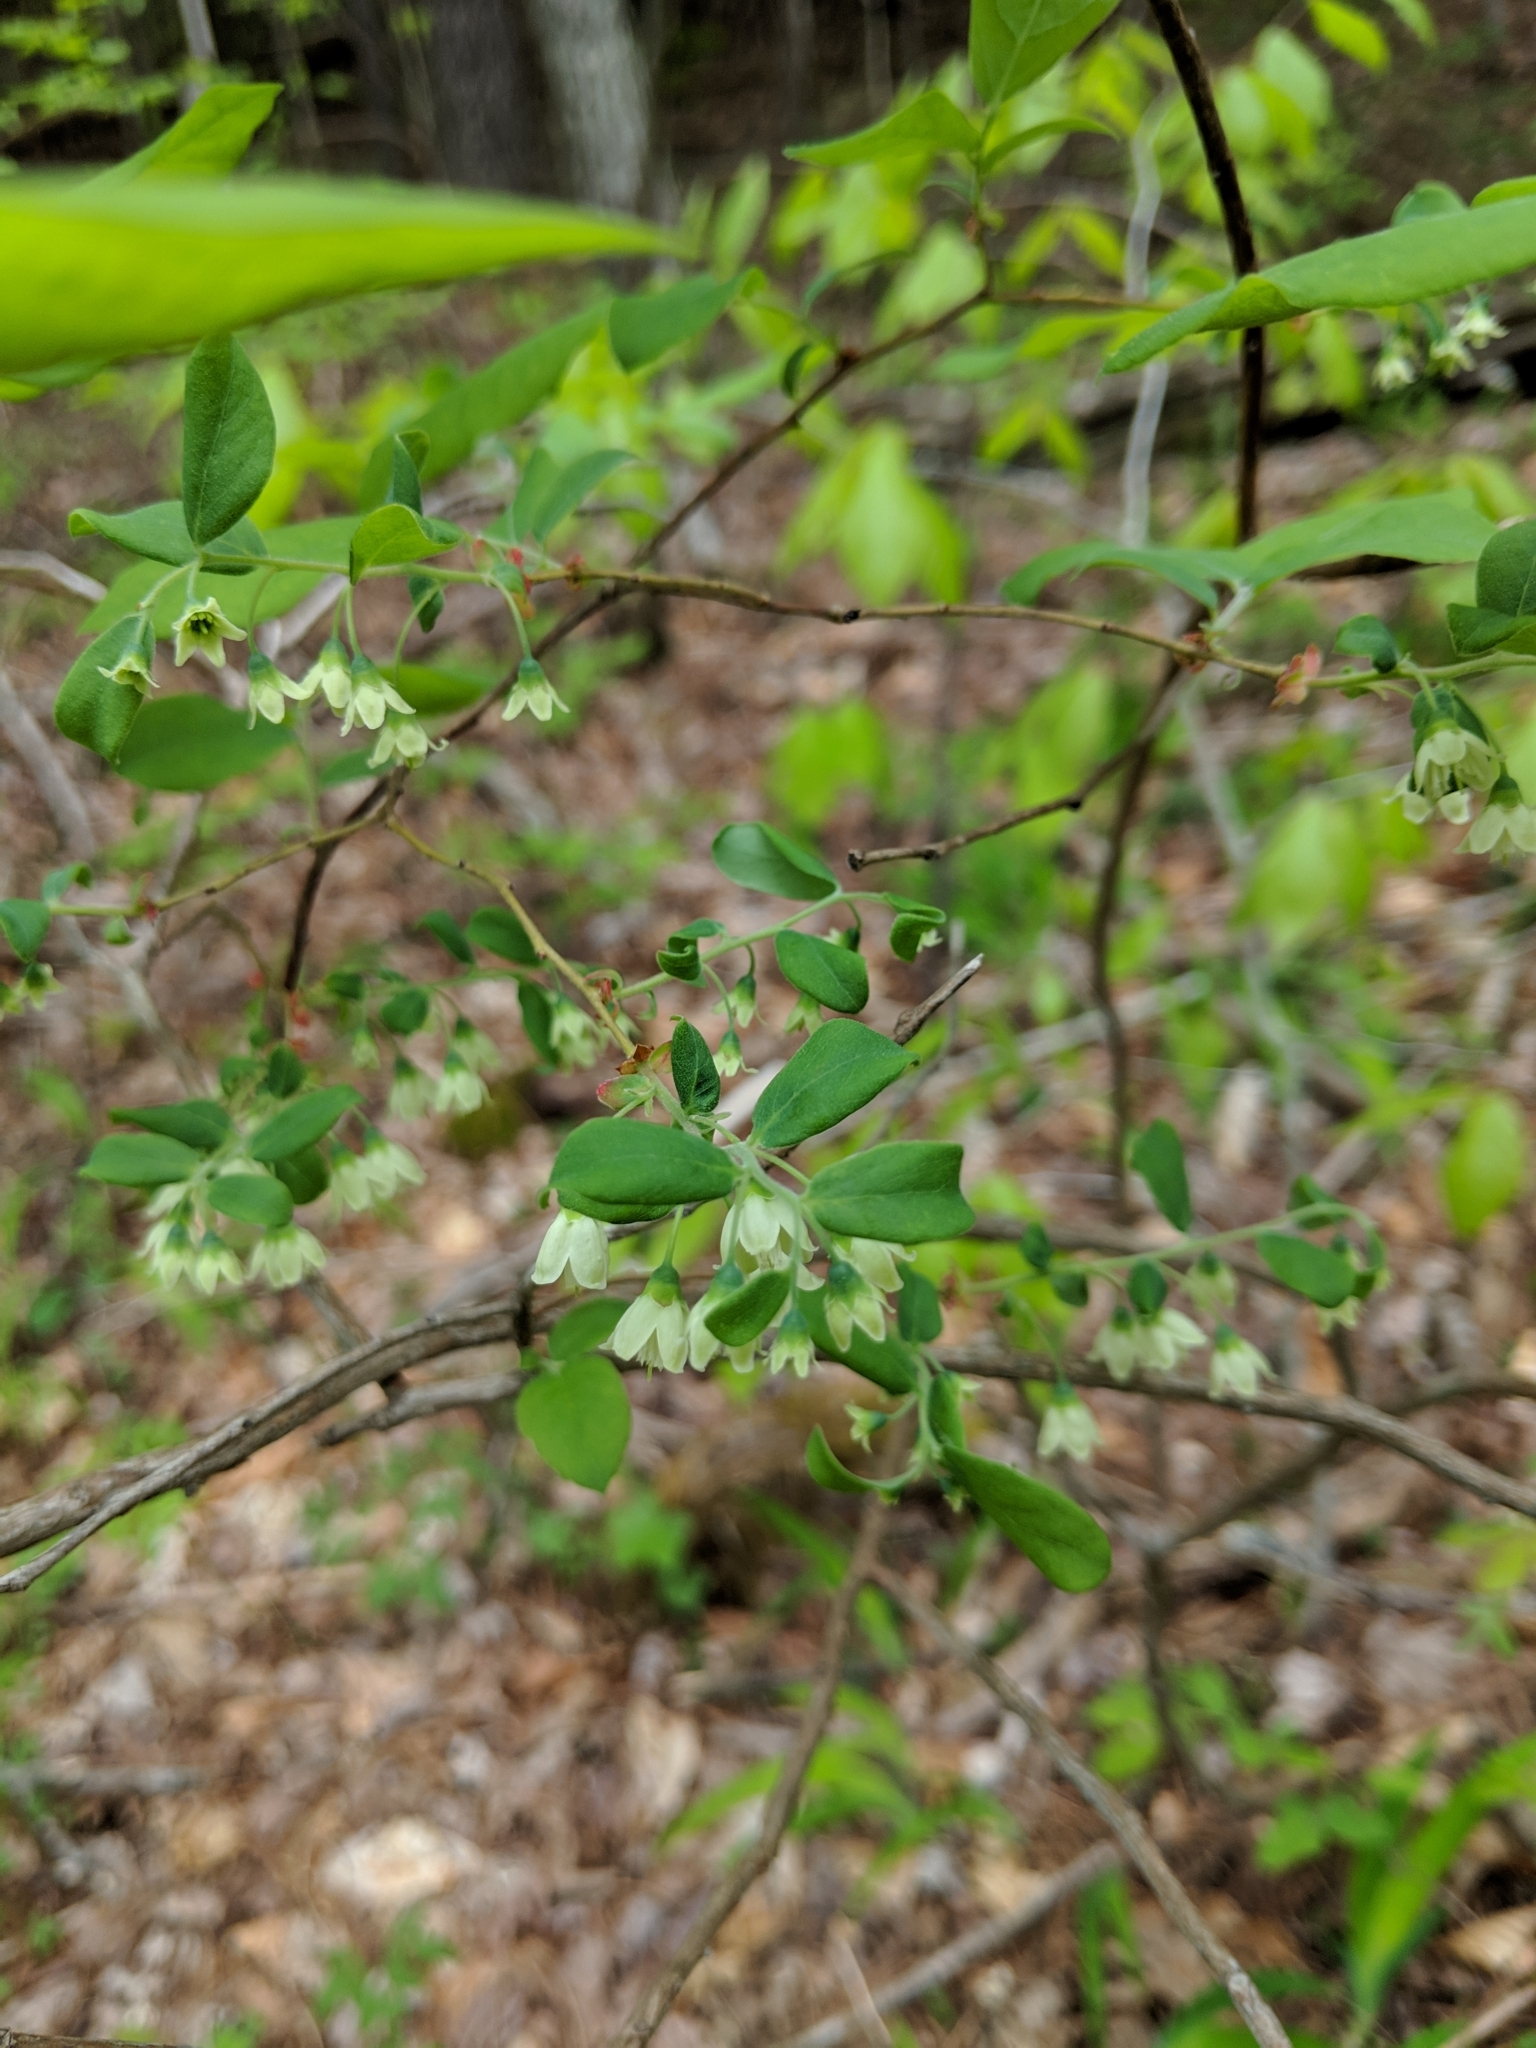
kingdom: Plantae
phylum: Tracheophyta
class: Magnoliopsida
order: Ericales
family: Ericaceae
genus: Vaccinium
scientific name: Vaccinium stamineum
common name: Deerberry
